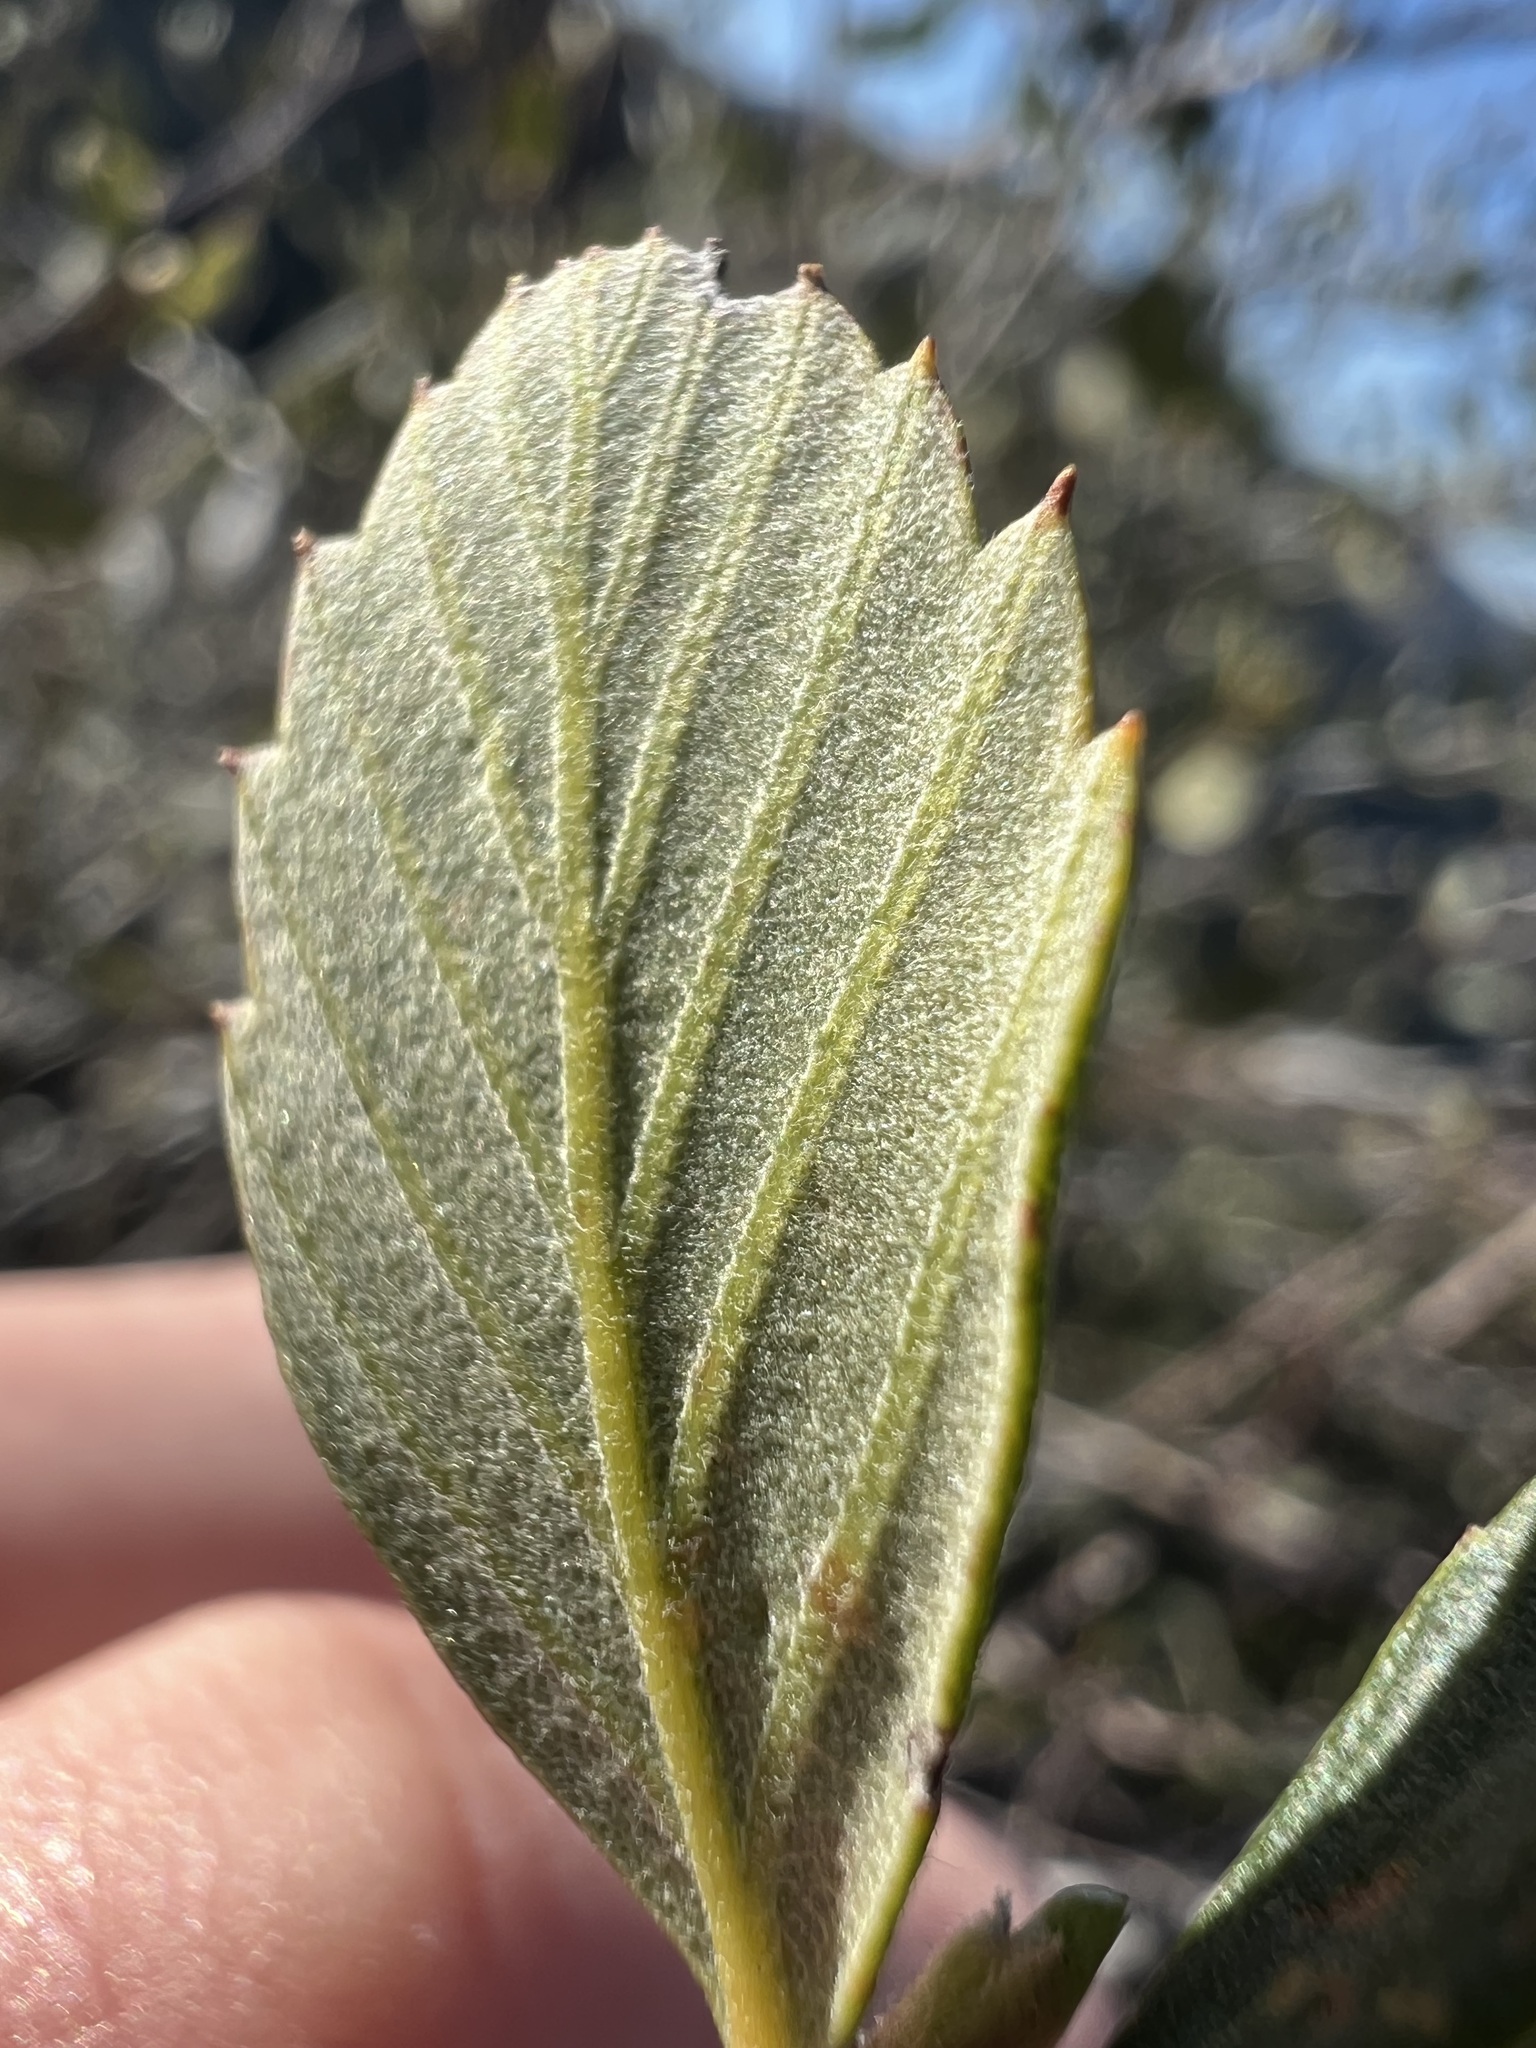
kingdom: Plantae
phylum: Tracheophyta
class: Magnoliopsida
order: Rosales
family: Rosaceae
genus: Cercocarpus
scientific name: Cercocarpus betuloides
